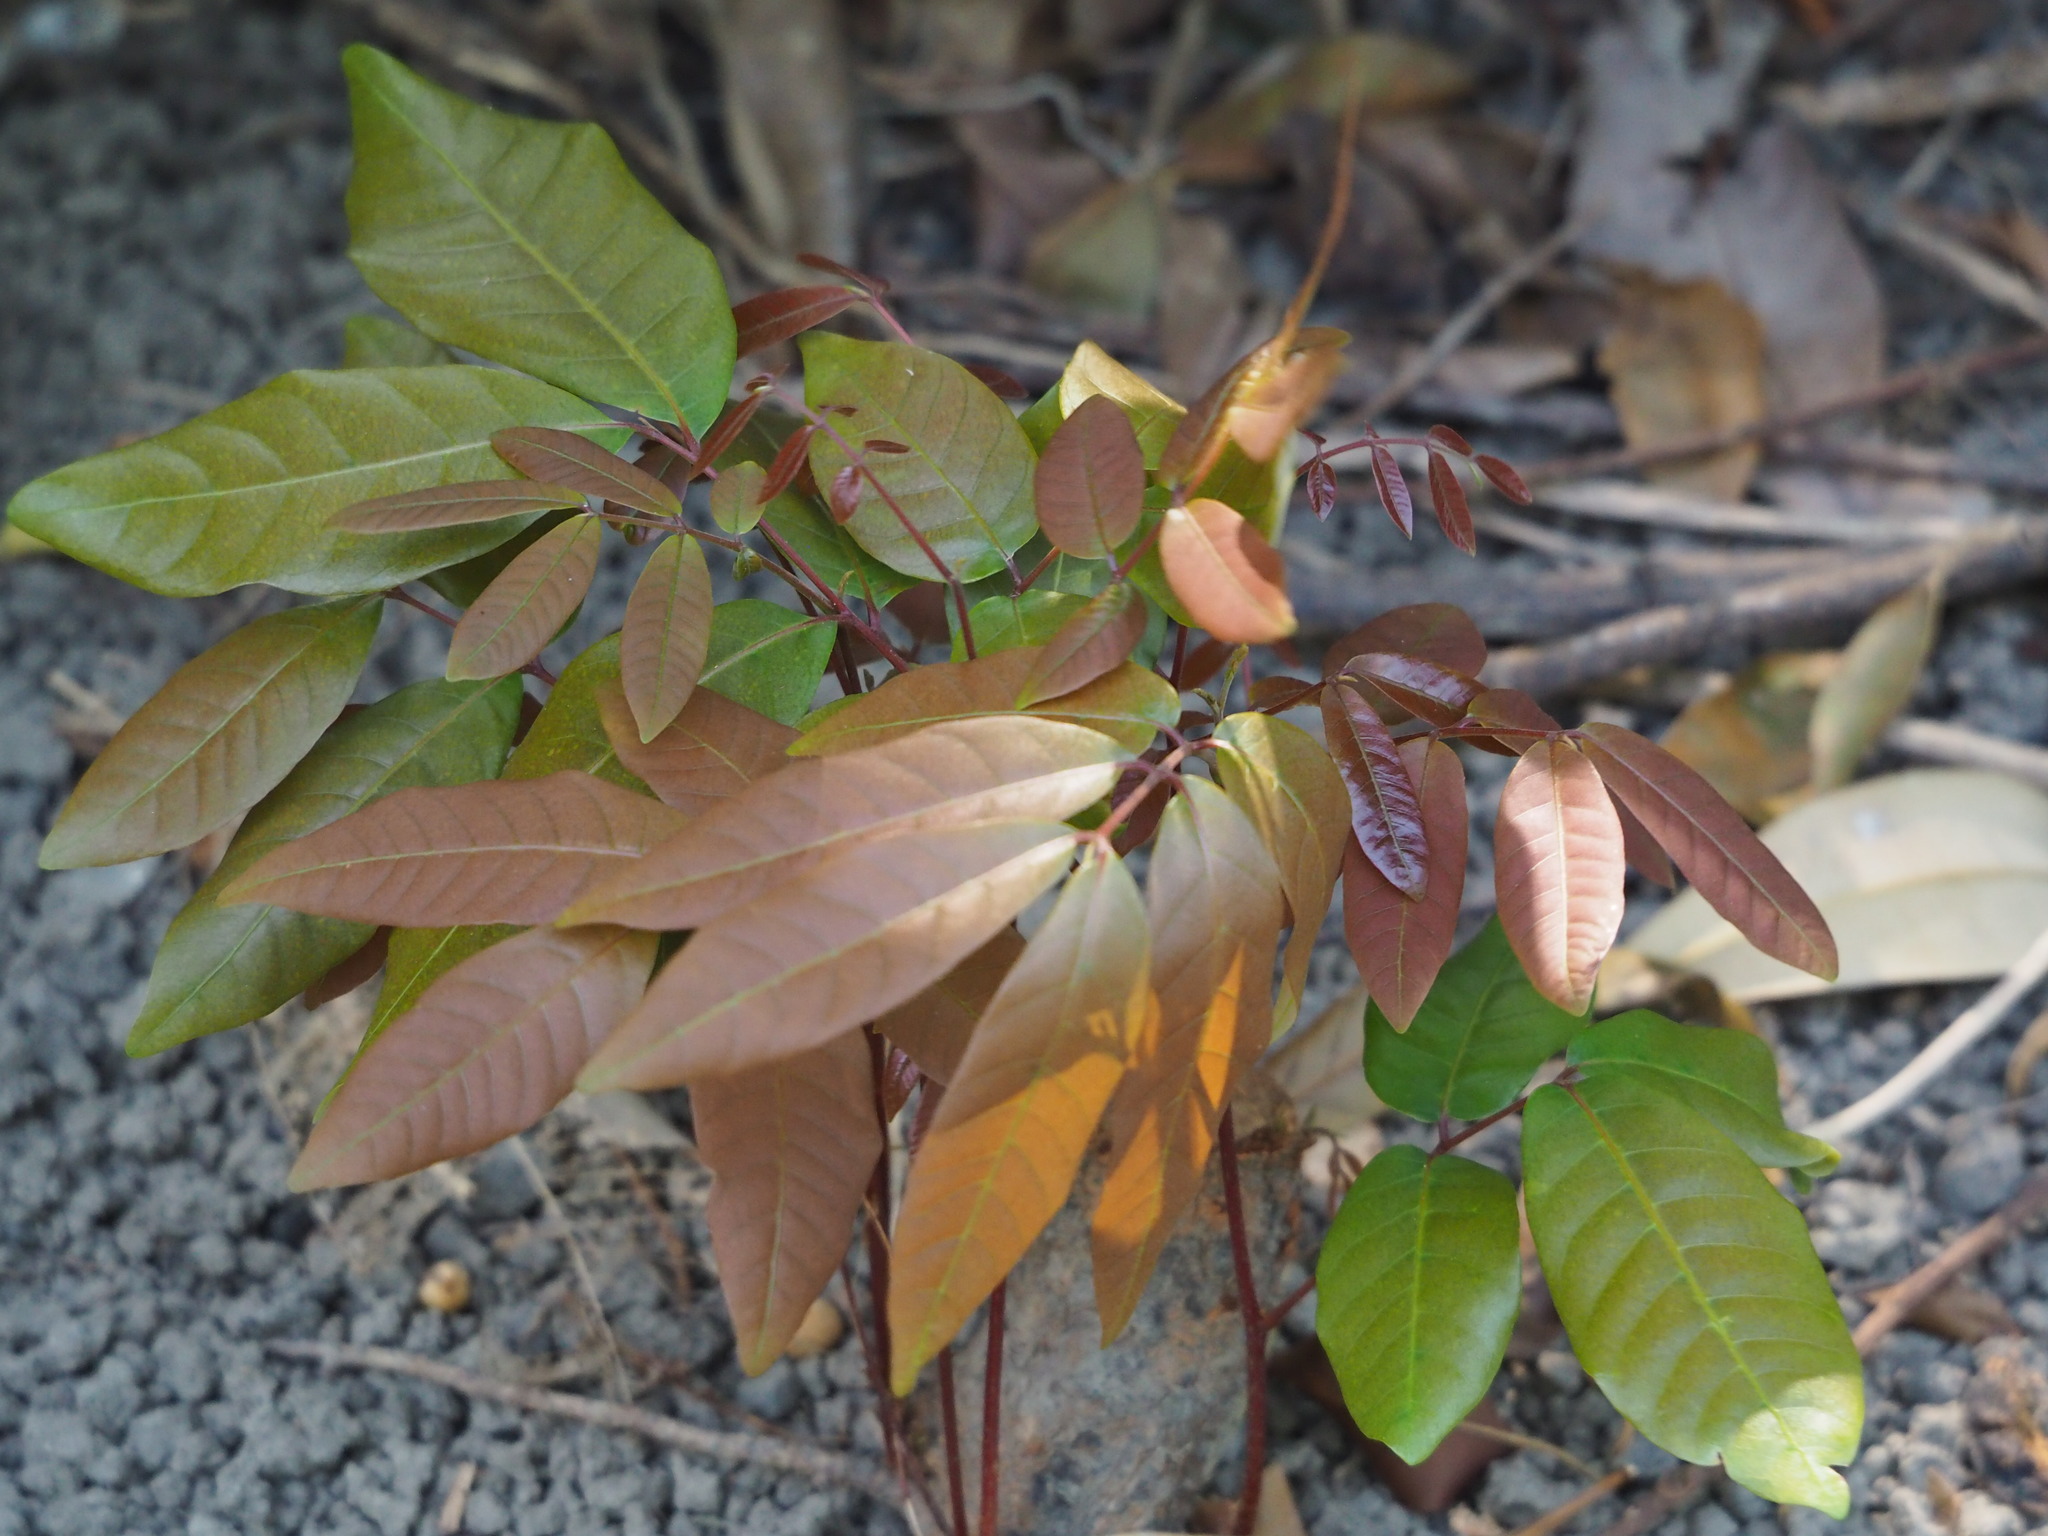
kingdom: Plantae
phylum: Tracheophyta
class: Magnoliopsida
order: Sapindales
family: Sapindaceae
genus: Dimocarpus
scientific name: Dimocarpus longan
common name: Longan
